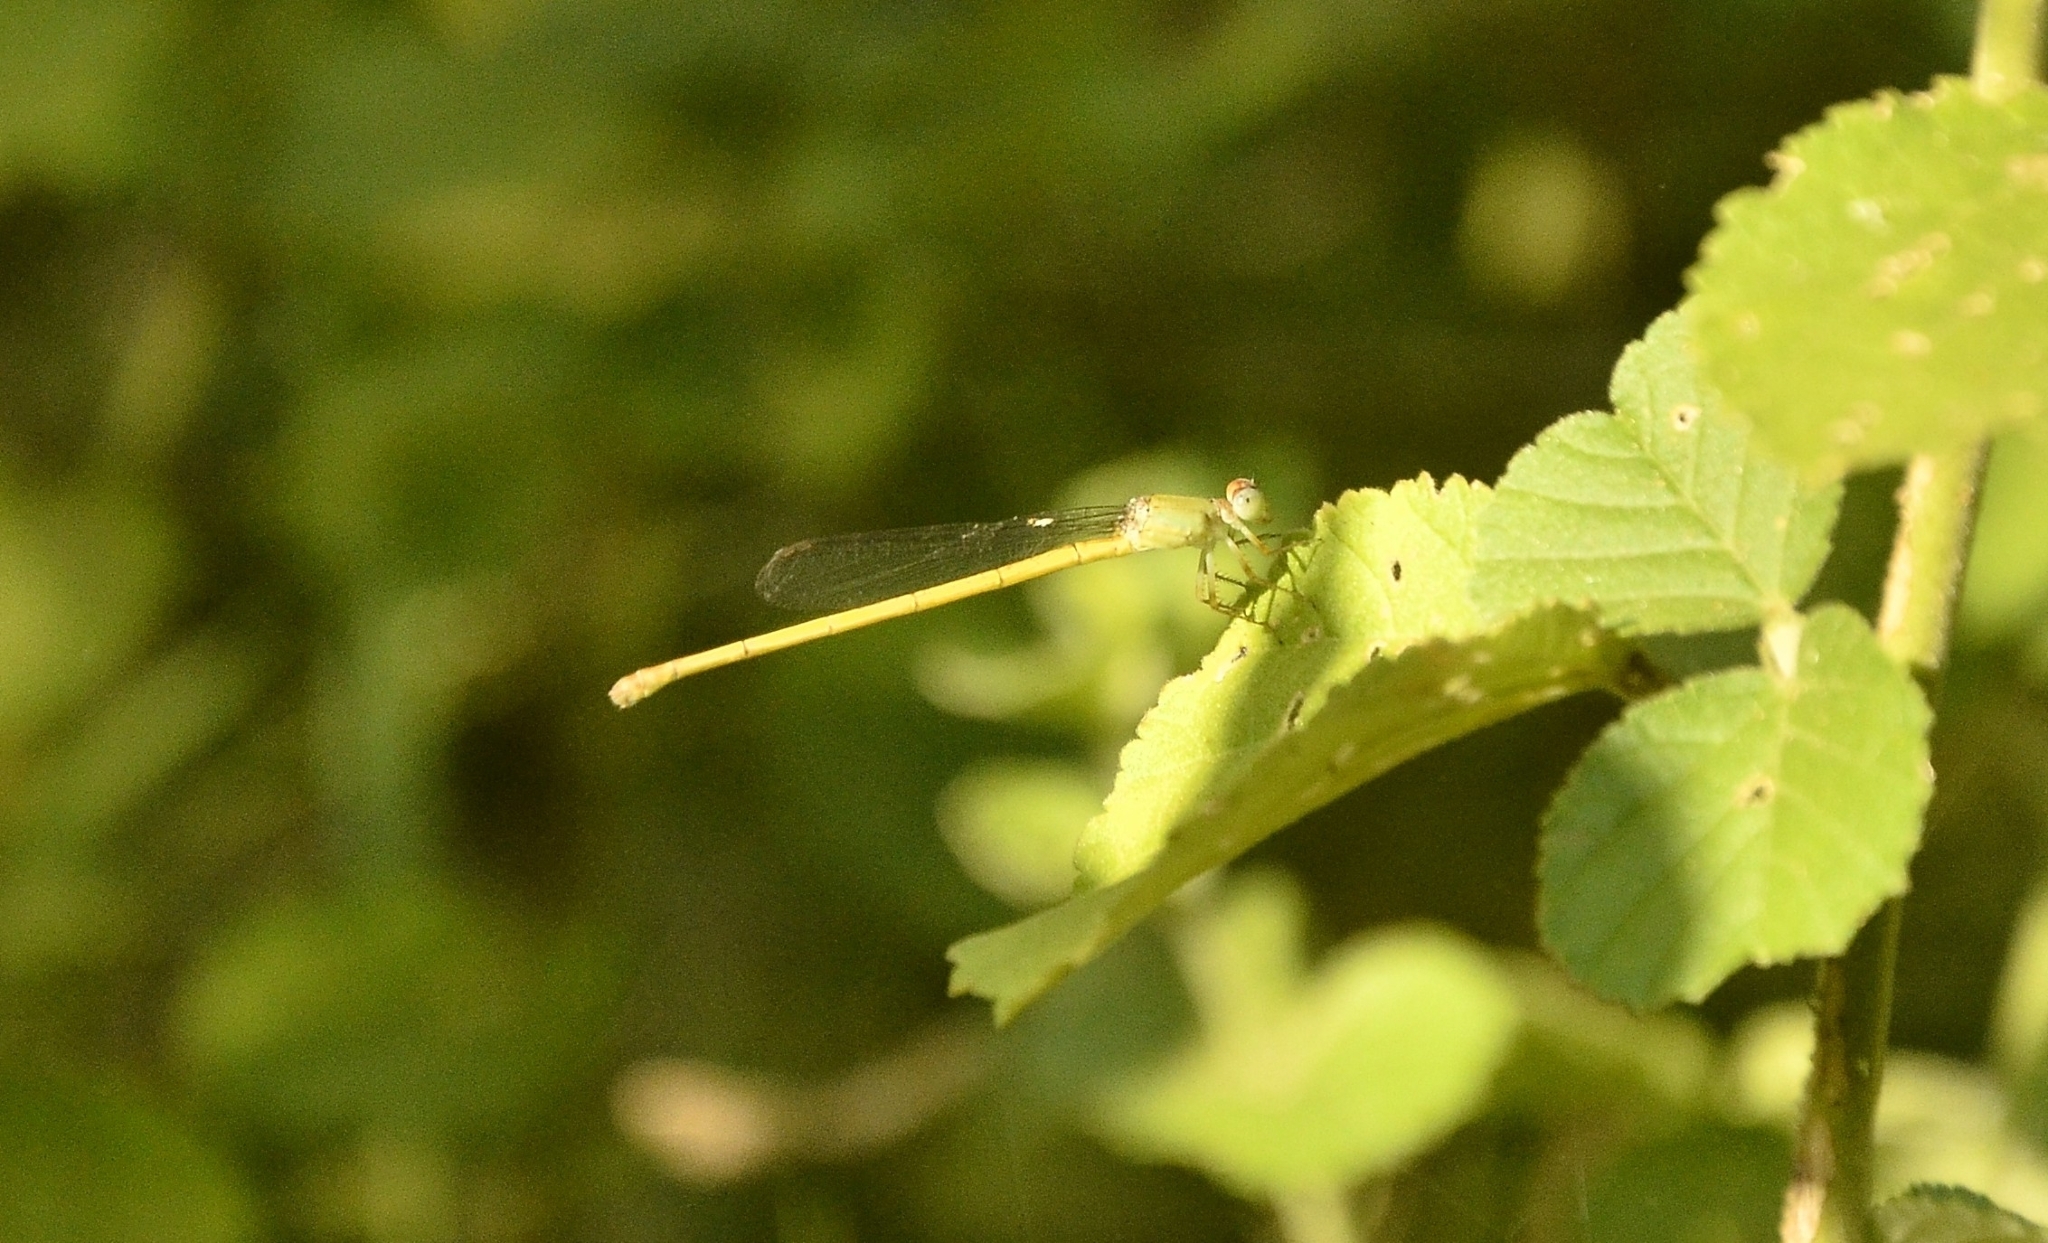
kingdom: Animalia
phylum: Arthropoda
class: Insecta
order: Odonata
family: Coenagrionidae
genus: Ceriagrion
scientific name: Ceriagrion coromandelianum
